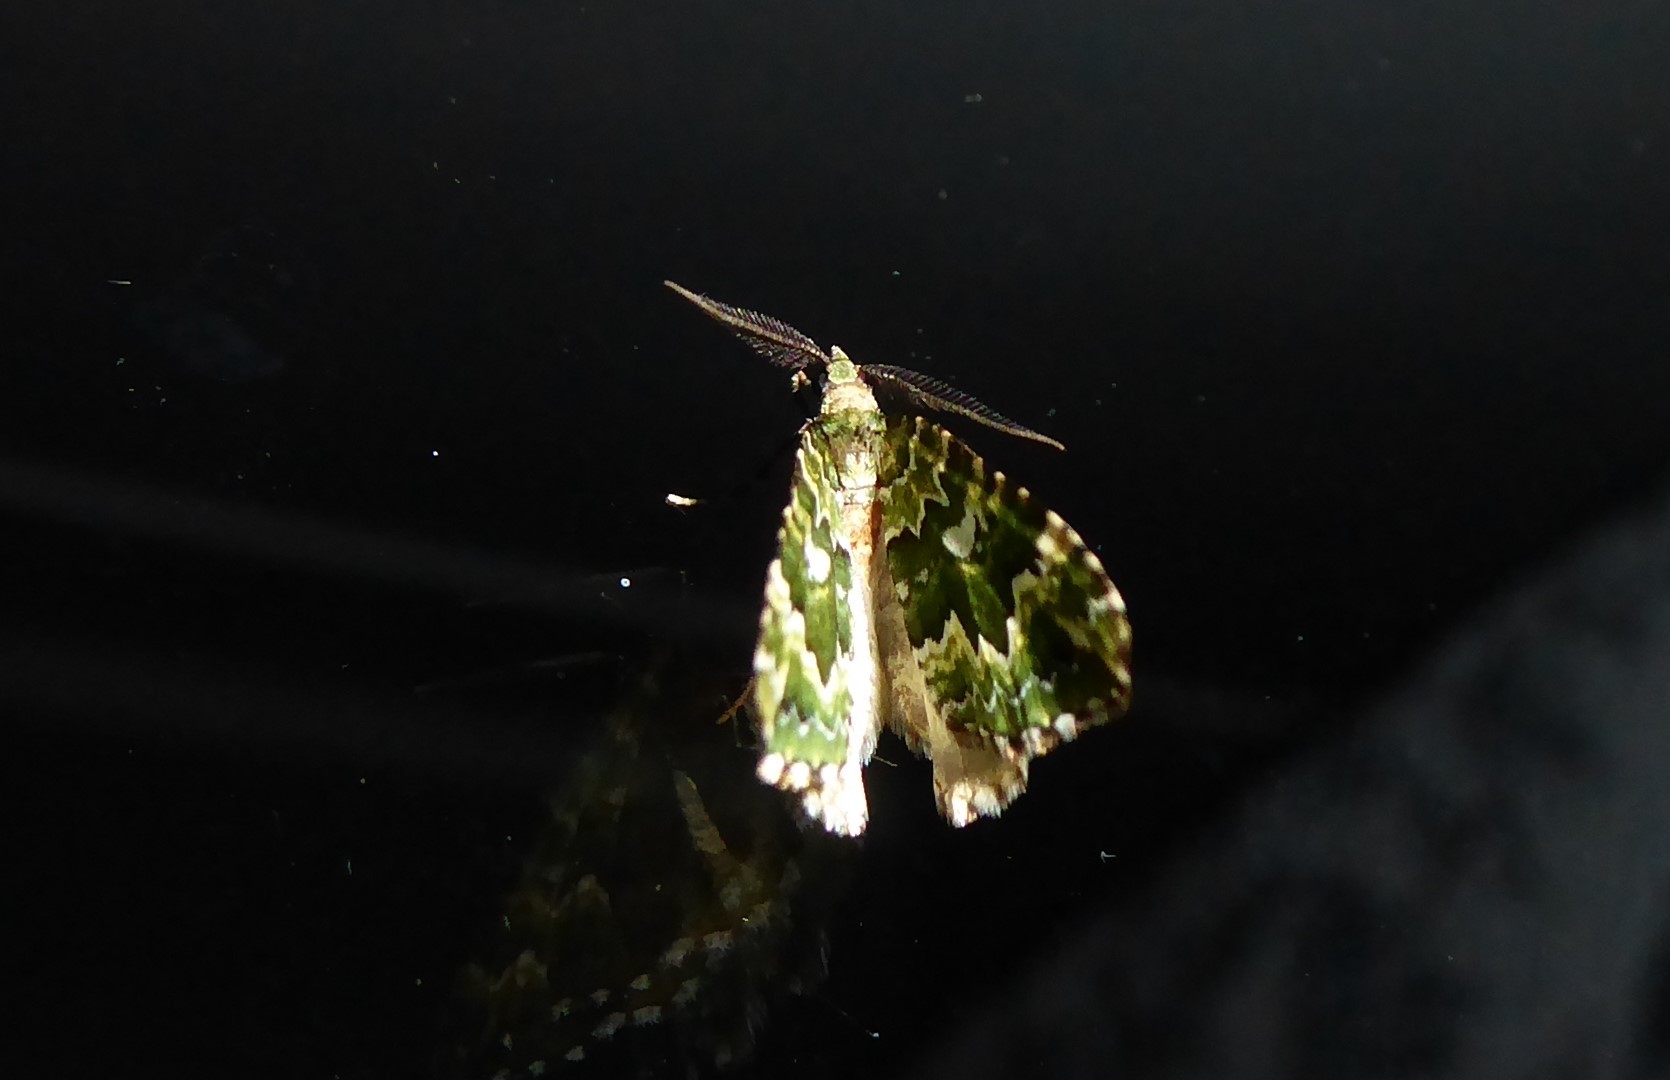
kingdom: Animalia
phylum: Arthropoda
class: Insecta
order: Lepidoptera
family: Geometridae
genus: Asaphodes
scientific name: Asaphodes beata
